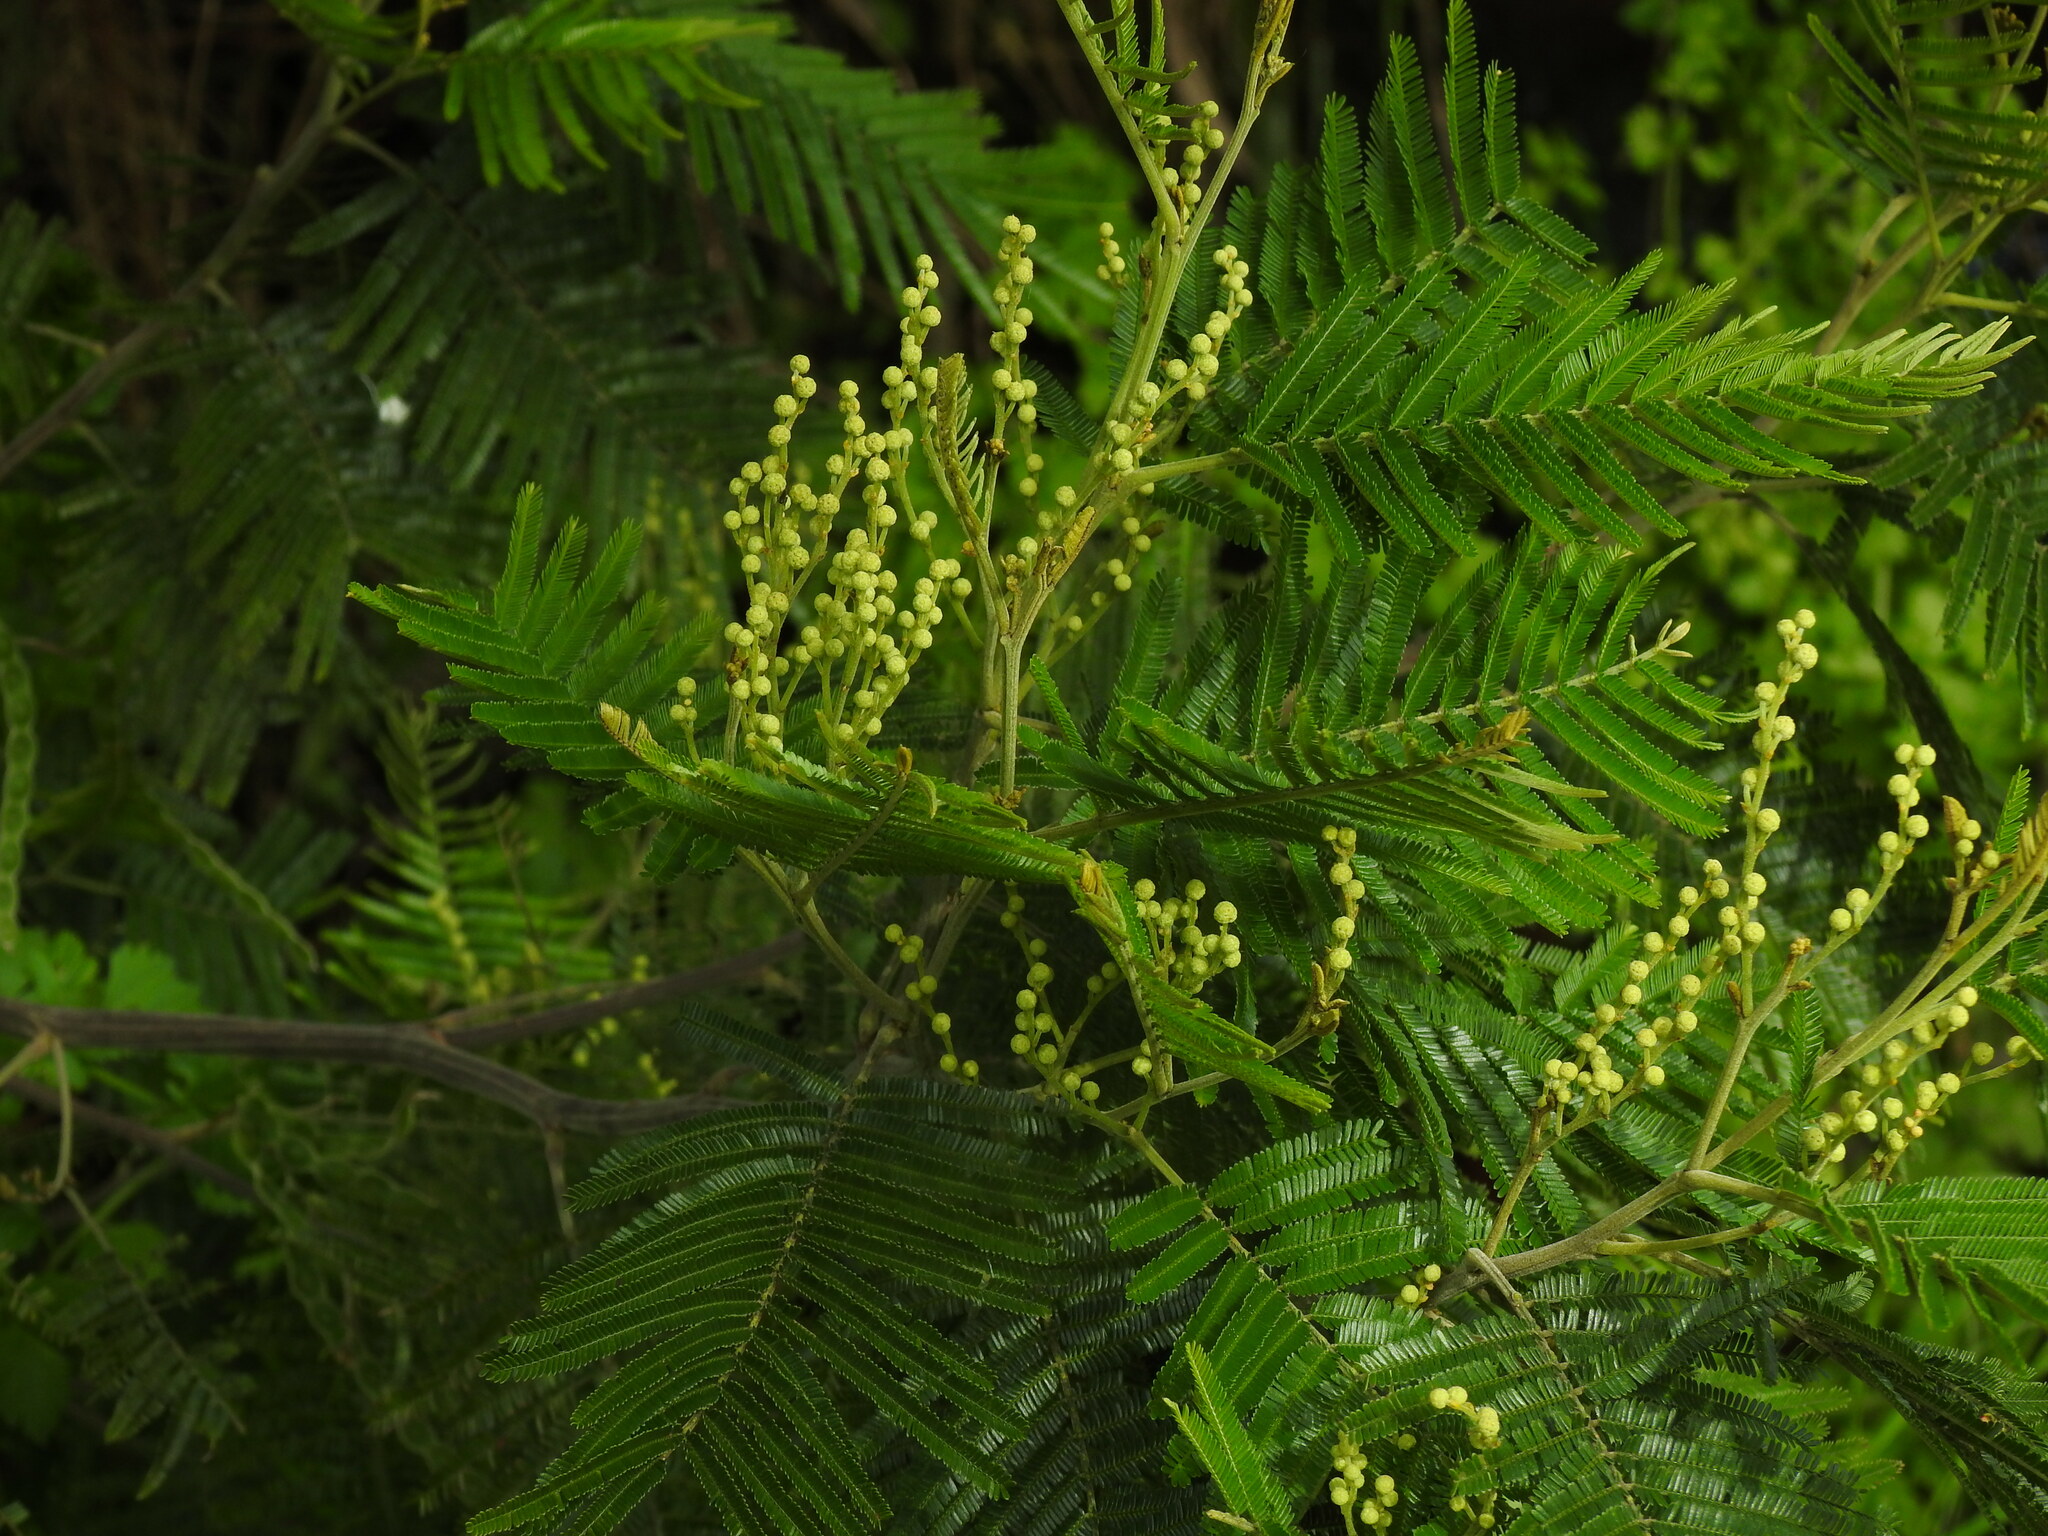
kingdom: Plantae
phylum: Tracheophyta
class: Magnoliopsida
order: Fabales
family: Fabaceae
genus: Acacia
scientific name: Acacia mearnsii
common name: Black wattle
